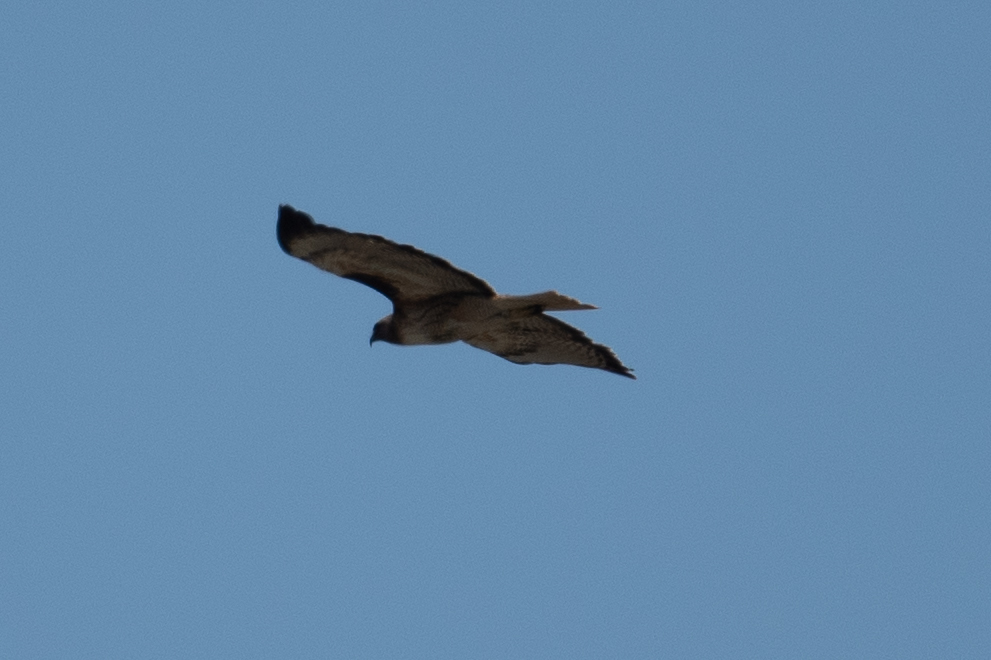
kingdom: Animalia
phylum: Chordata
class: Aves
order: Accipitriformes
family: Accipitridae
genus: Buteo
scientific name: Buteo jamaicensis
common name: Red-tailed hawk
